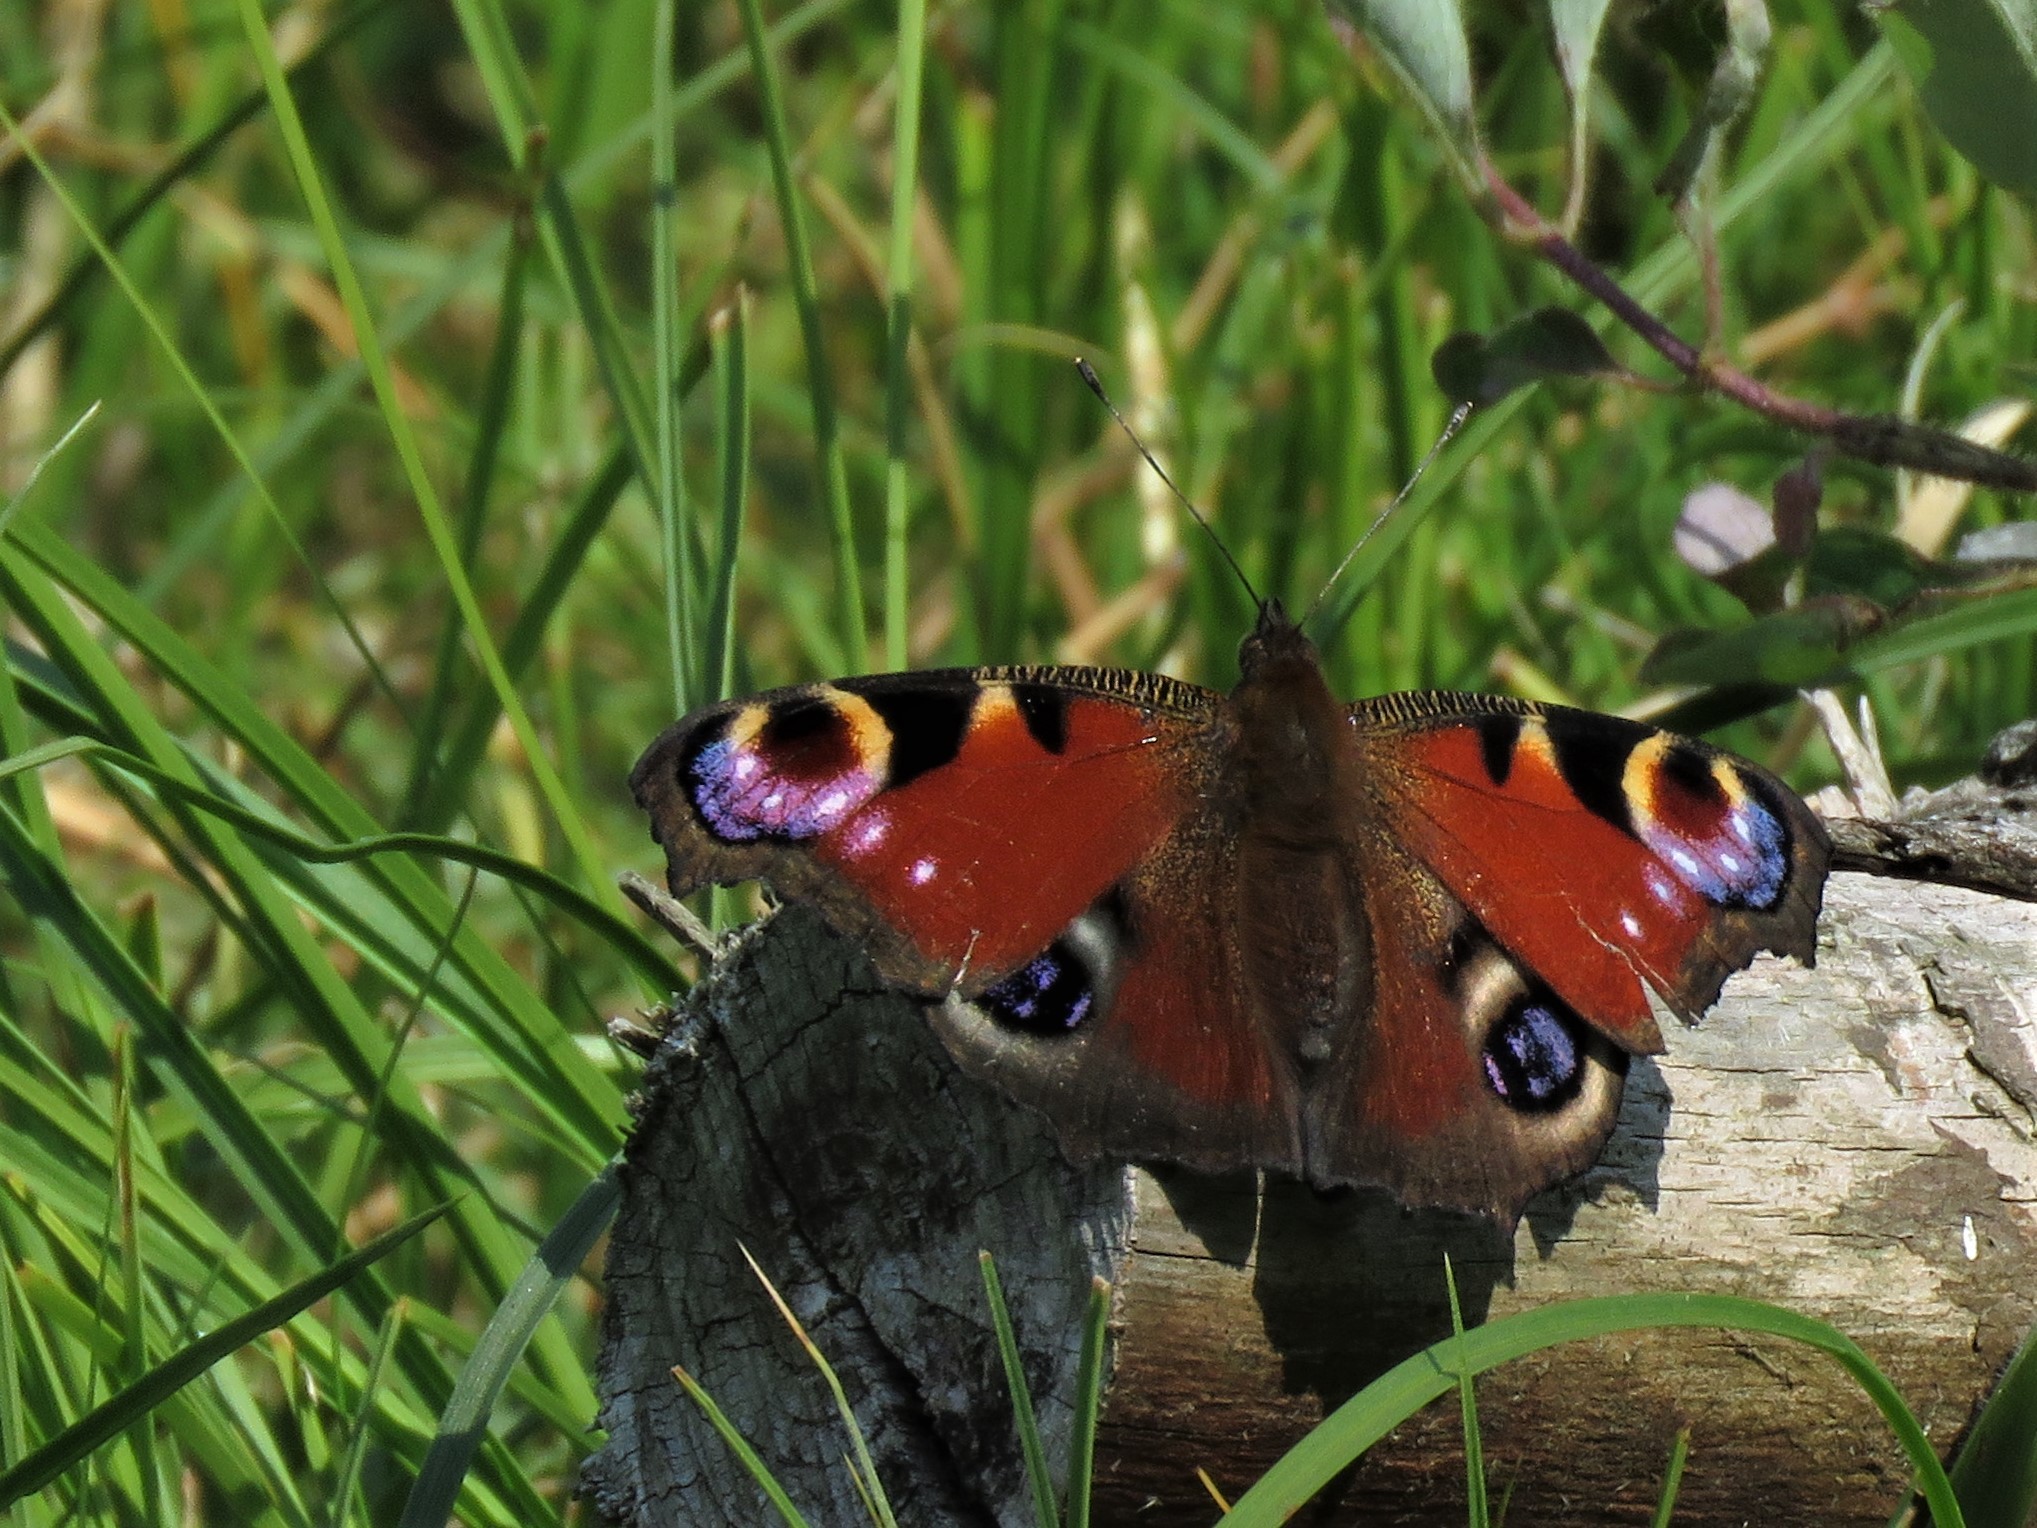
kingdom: Animalia
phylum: Arthropoda
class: Insecta
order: Lepidoptera
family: Nymphalidae
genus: Aglais
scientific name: Aglais io
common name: Peacock
